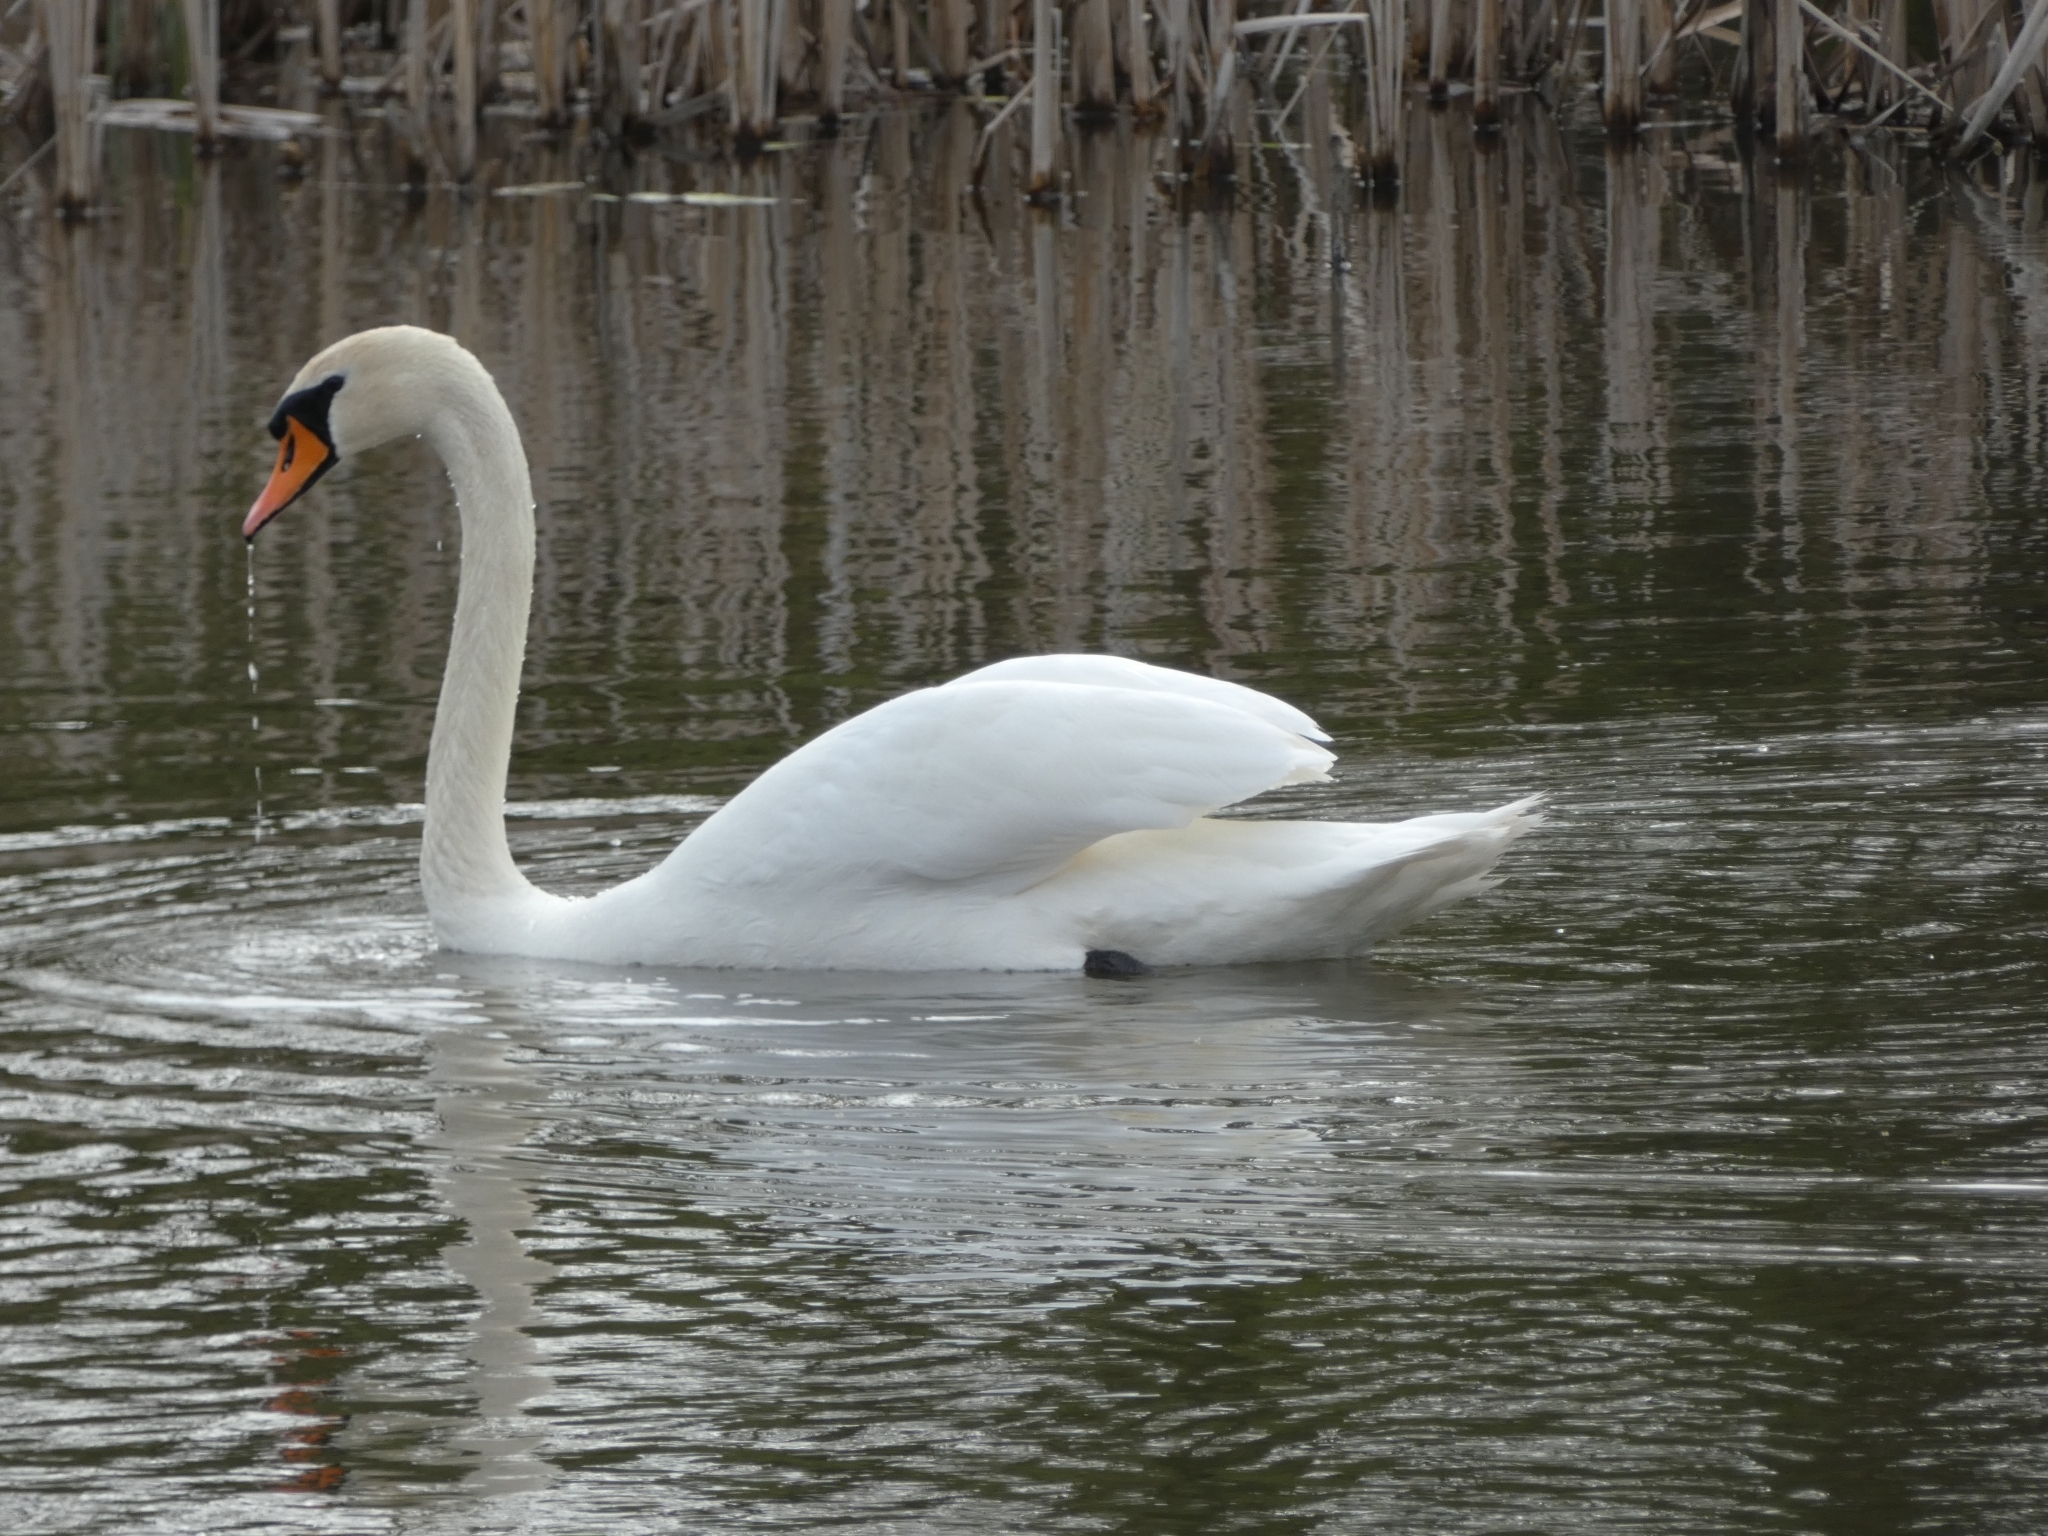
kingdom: Animalia
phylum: Chordata
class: Aves
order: Anseriformes
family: Anatidae
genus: Cygnus
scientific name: Cygnus olor
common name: Mute swan
